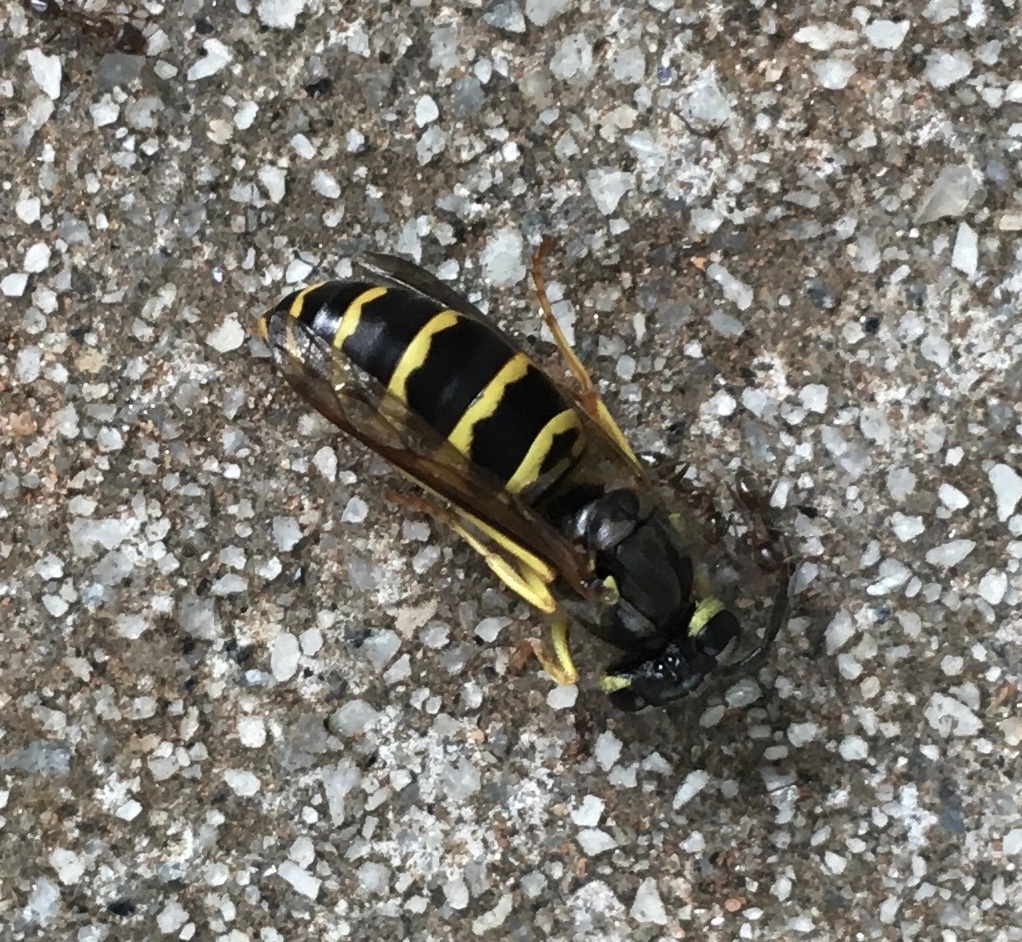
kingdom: Animalia
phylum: Arthropoda
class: Insecta
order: Hymenoptera
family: Vespidae
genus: Vespula
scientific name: Vespula maculifrons
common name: Eastern yellowjacket
